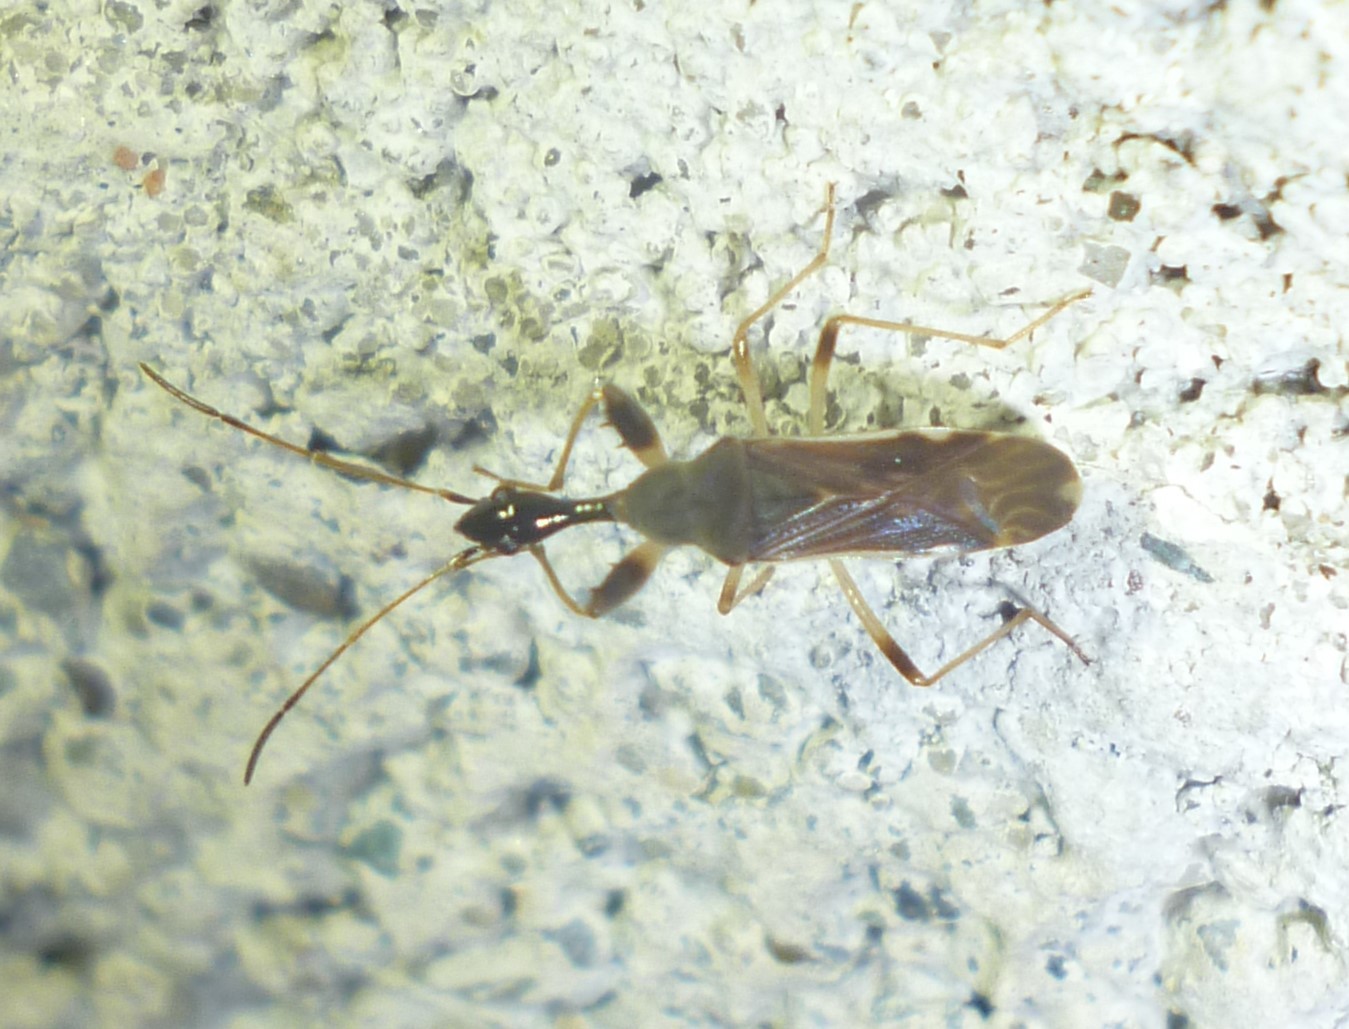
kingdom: Animalia
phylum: Arthropoda
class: Insecta
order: Hemiptera
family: Rhyparochromidae
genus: Myodocha
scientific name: Myodocha serripes
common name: Long-necked seed bug
